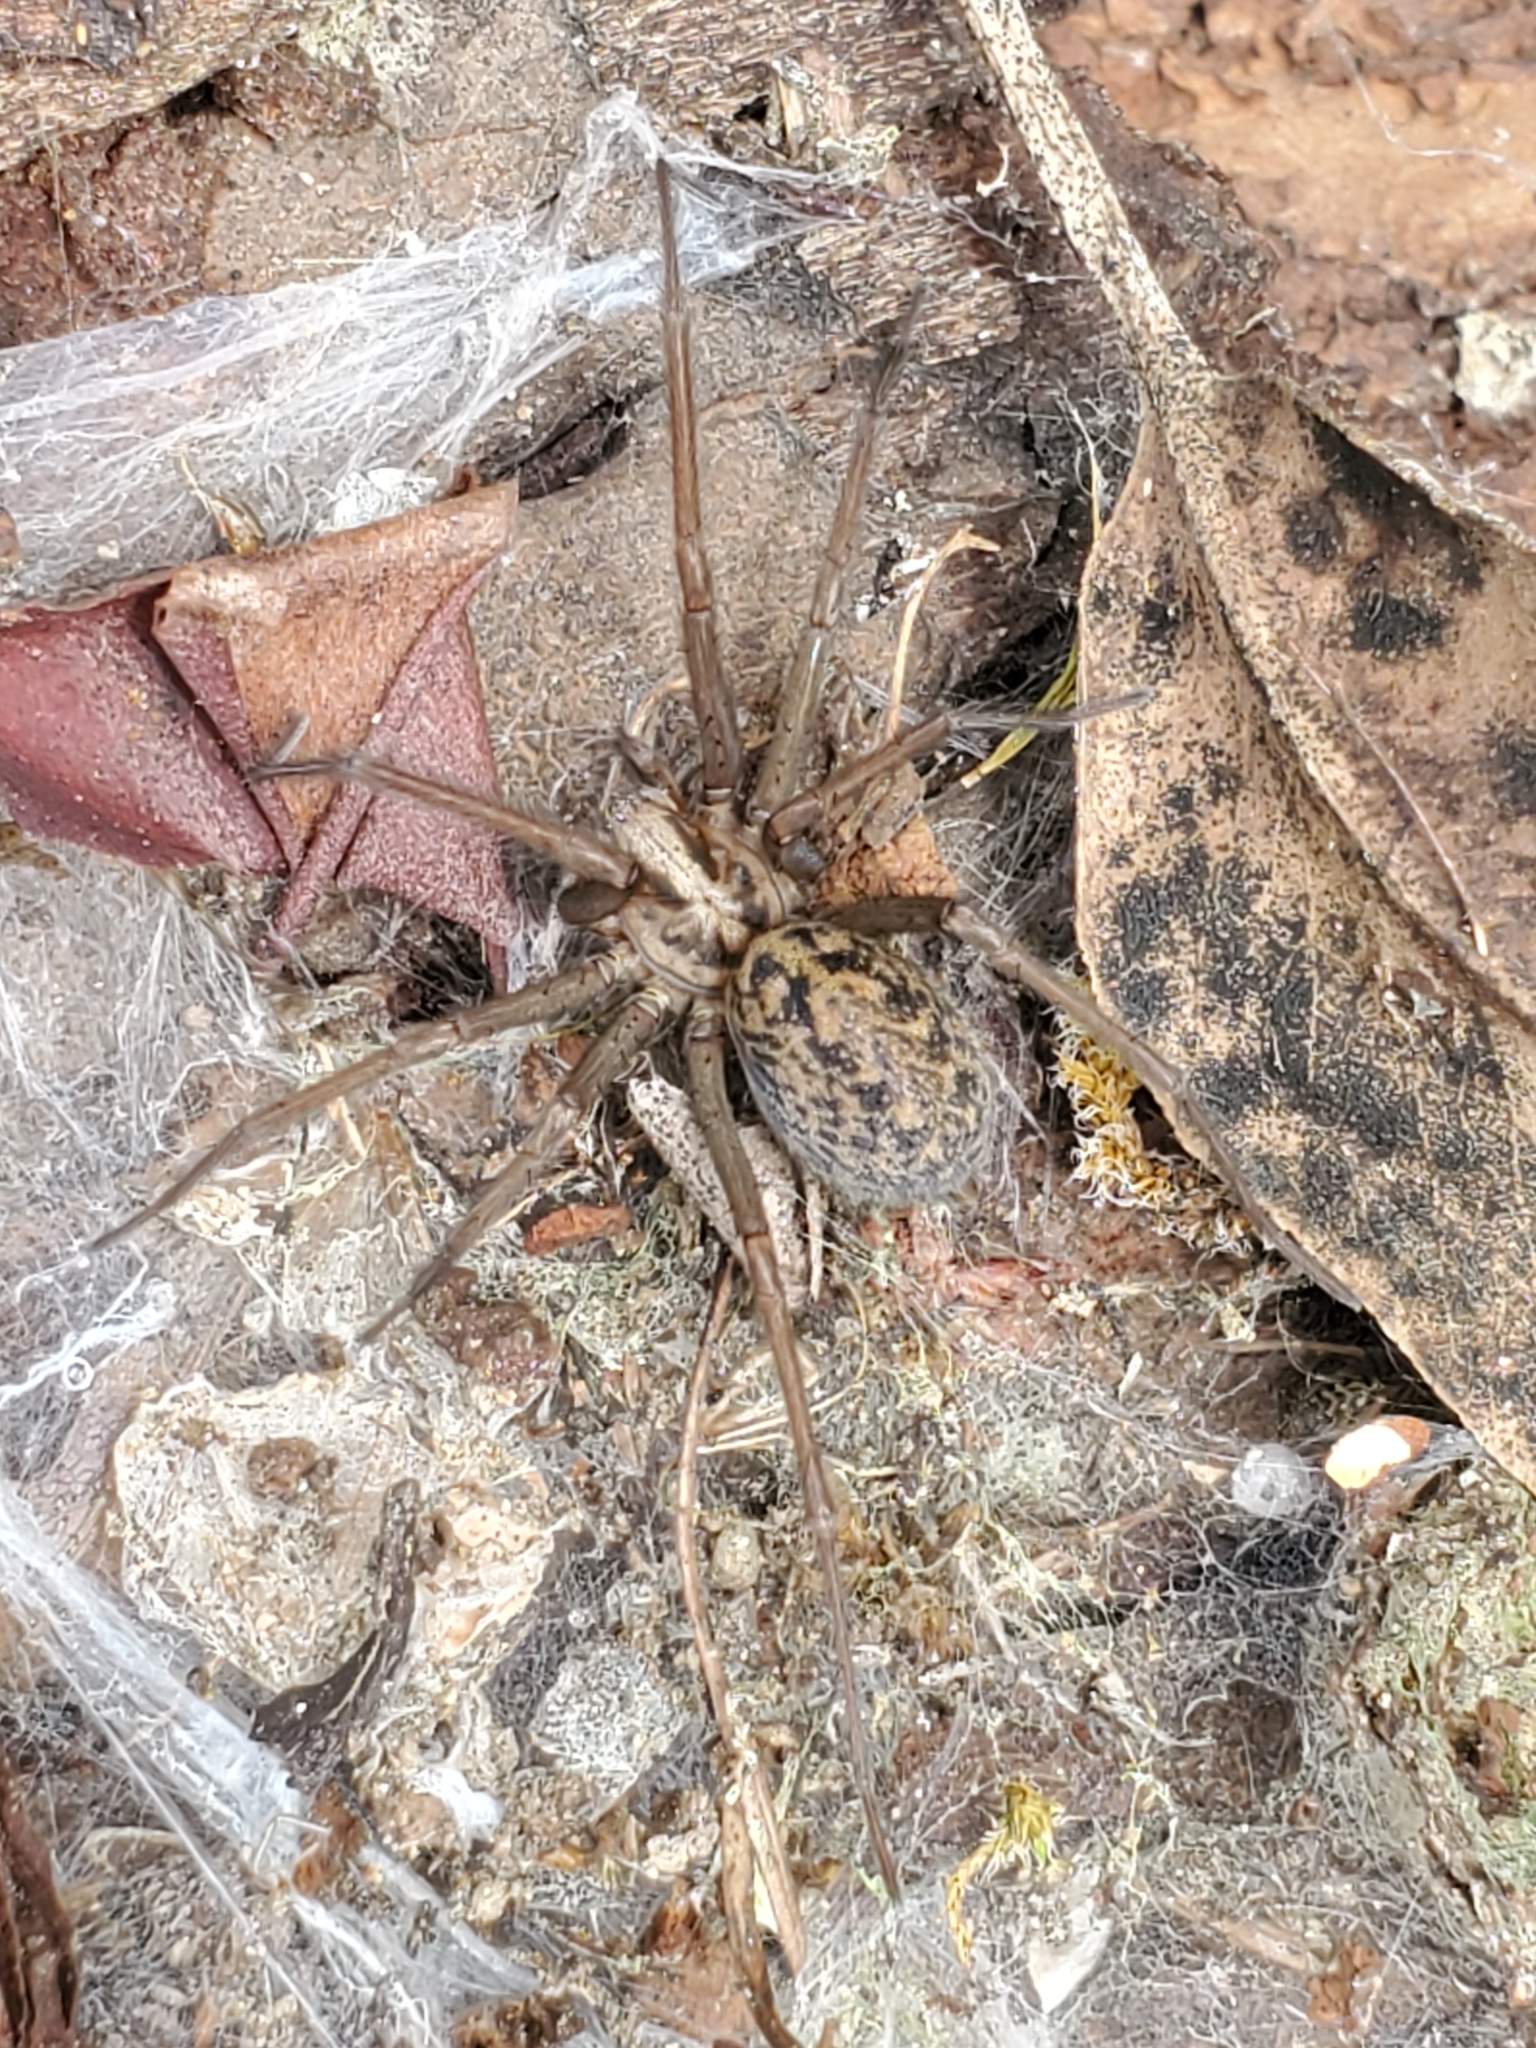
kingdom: Animalia
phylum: Arthropoda
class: Arachnida
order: Araneae
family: Agelenidae
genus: Eratigena
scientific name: Eratigena duellica
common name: Giant house spider
